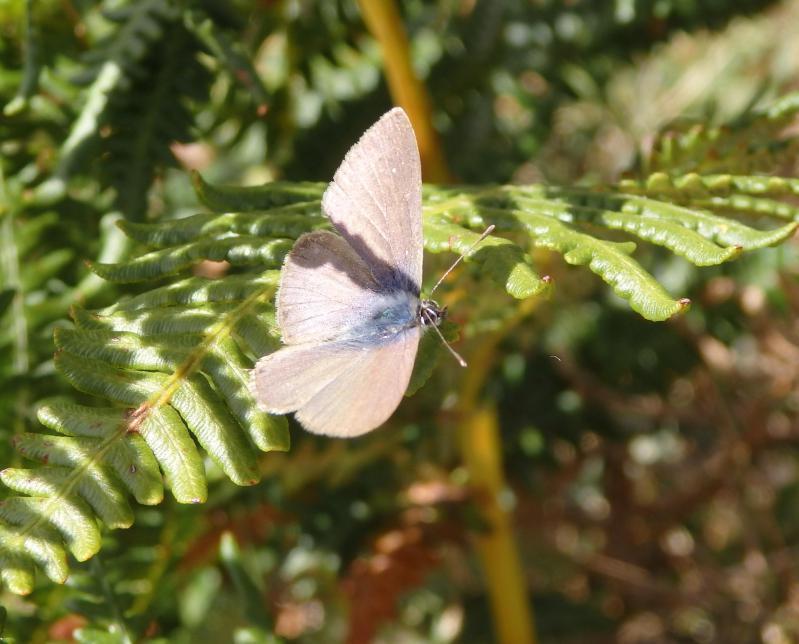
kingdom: Animalia
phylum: Arthropoda
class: Insecta
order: Lepidoptera
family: Lycaenidae
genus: Leptotes
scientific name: Leptotes pirithous
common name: Lang's short-tailed blue
